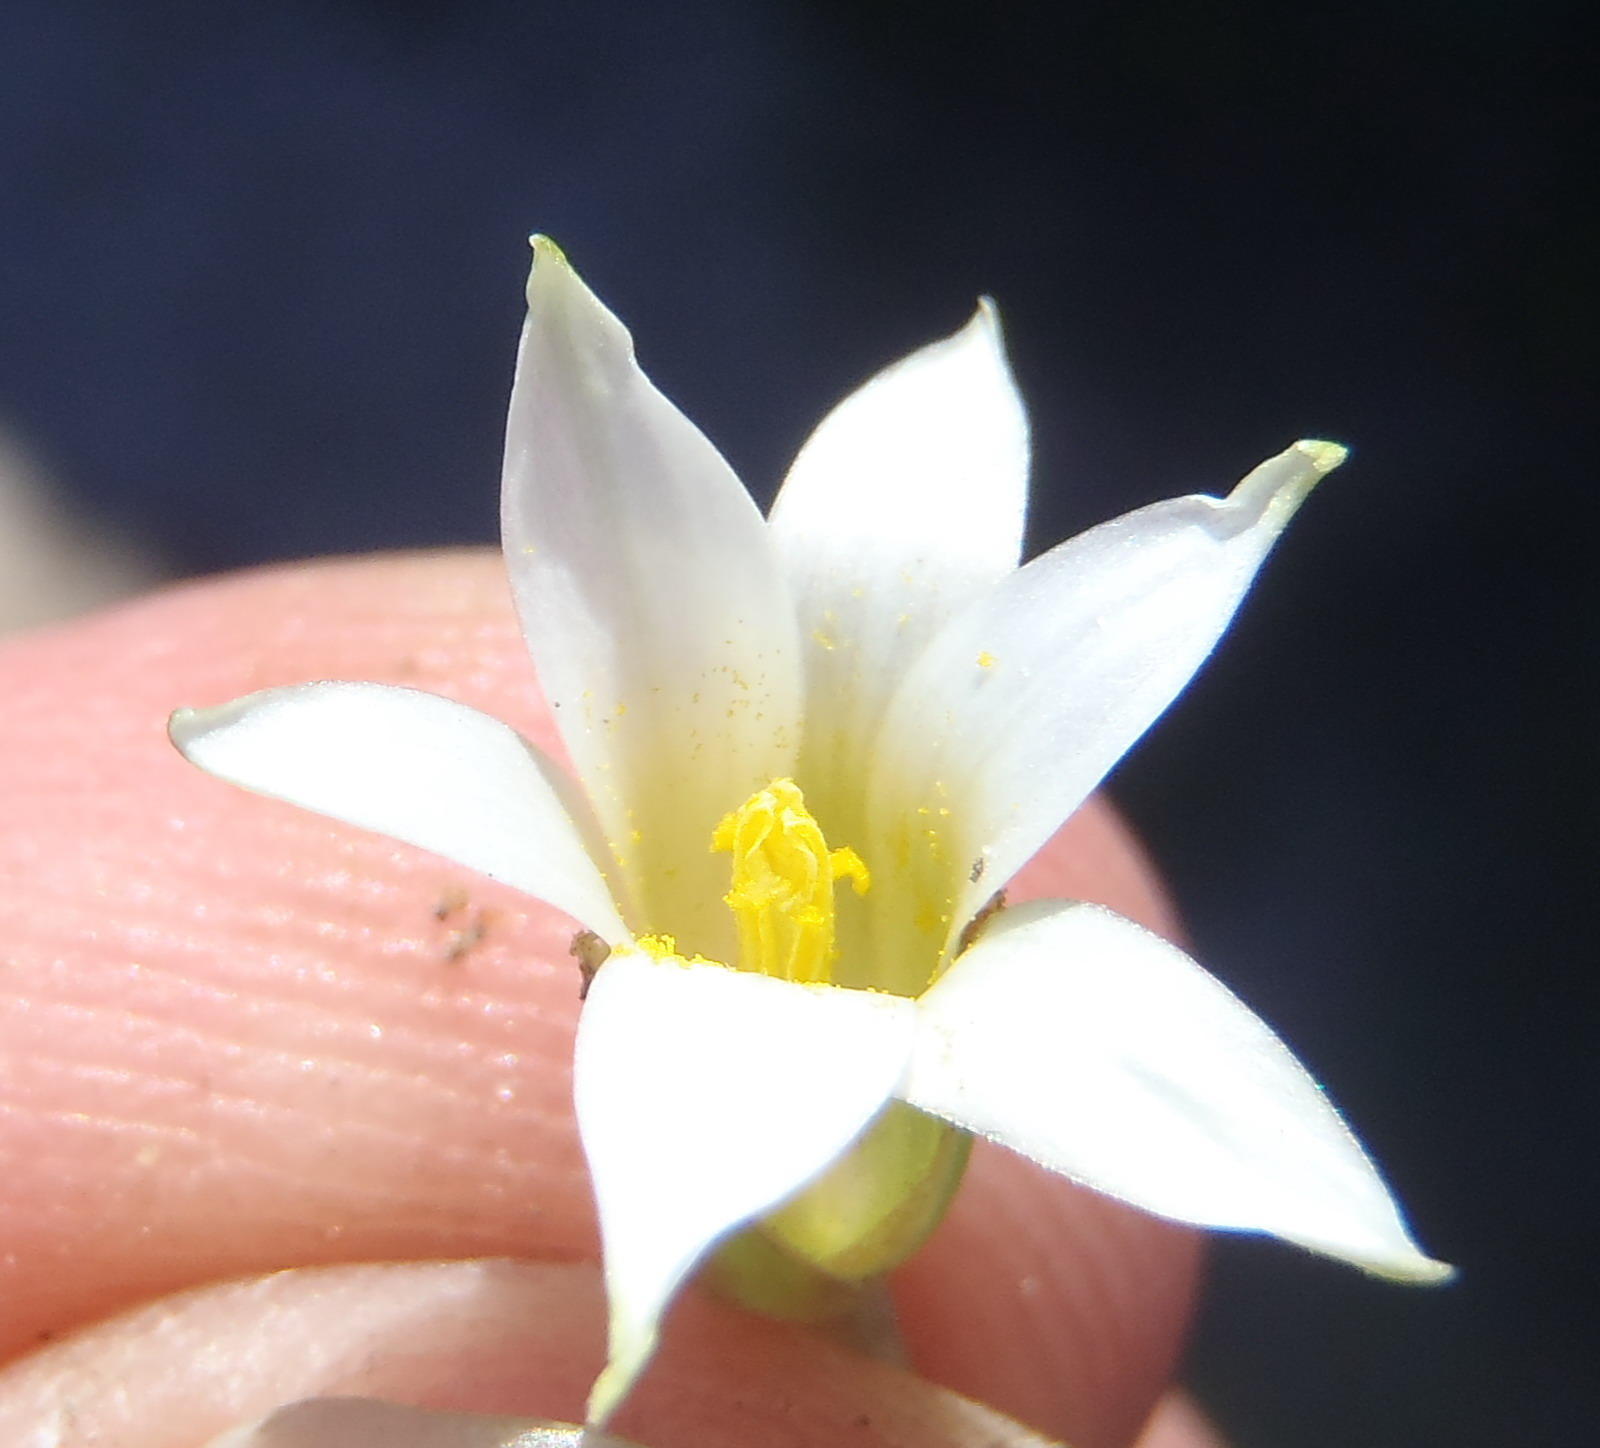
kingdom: Plantae
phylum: Tracheophyta
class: Liliopsida
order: Asparagales
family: Iridaceae
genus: Romulea
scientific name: Romulea flava
